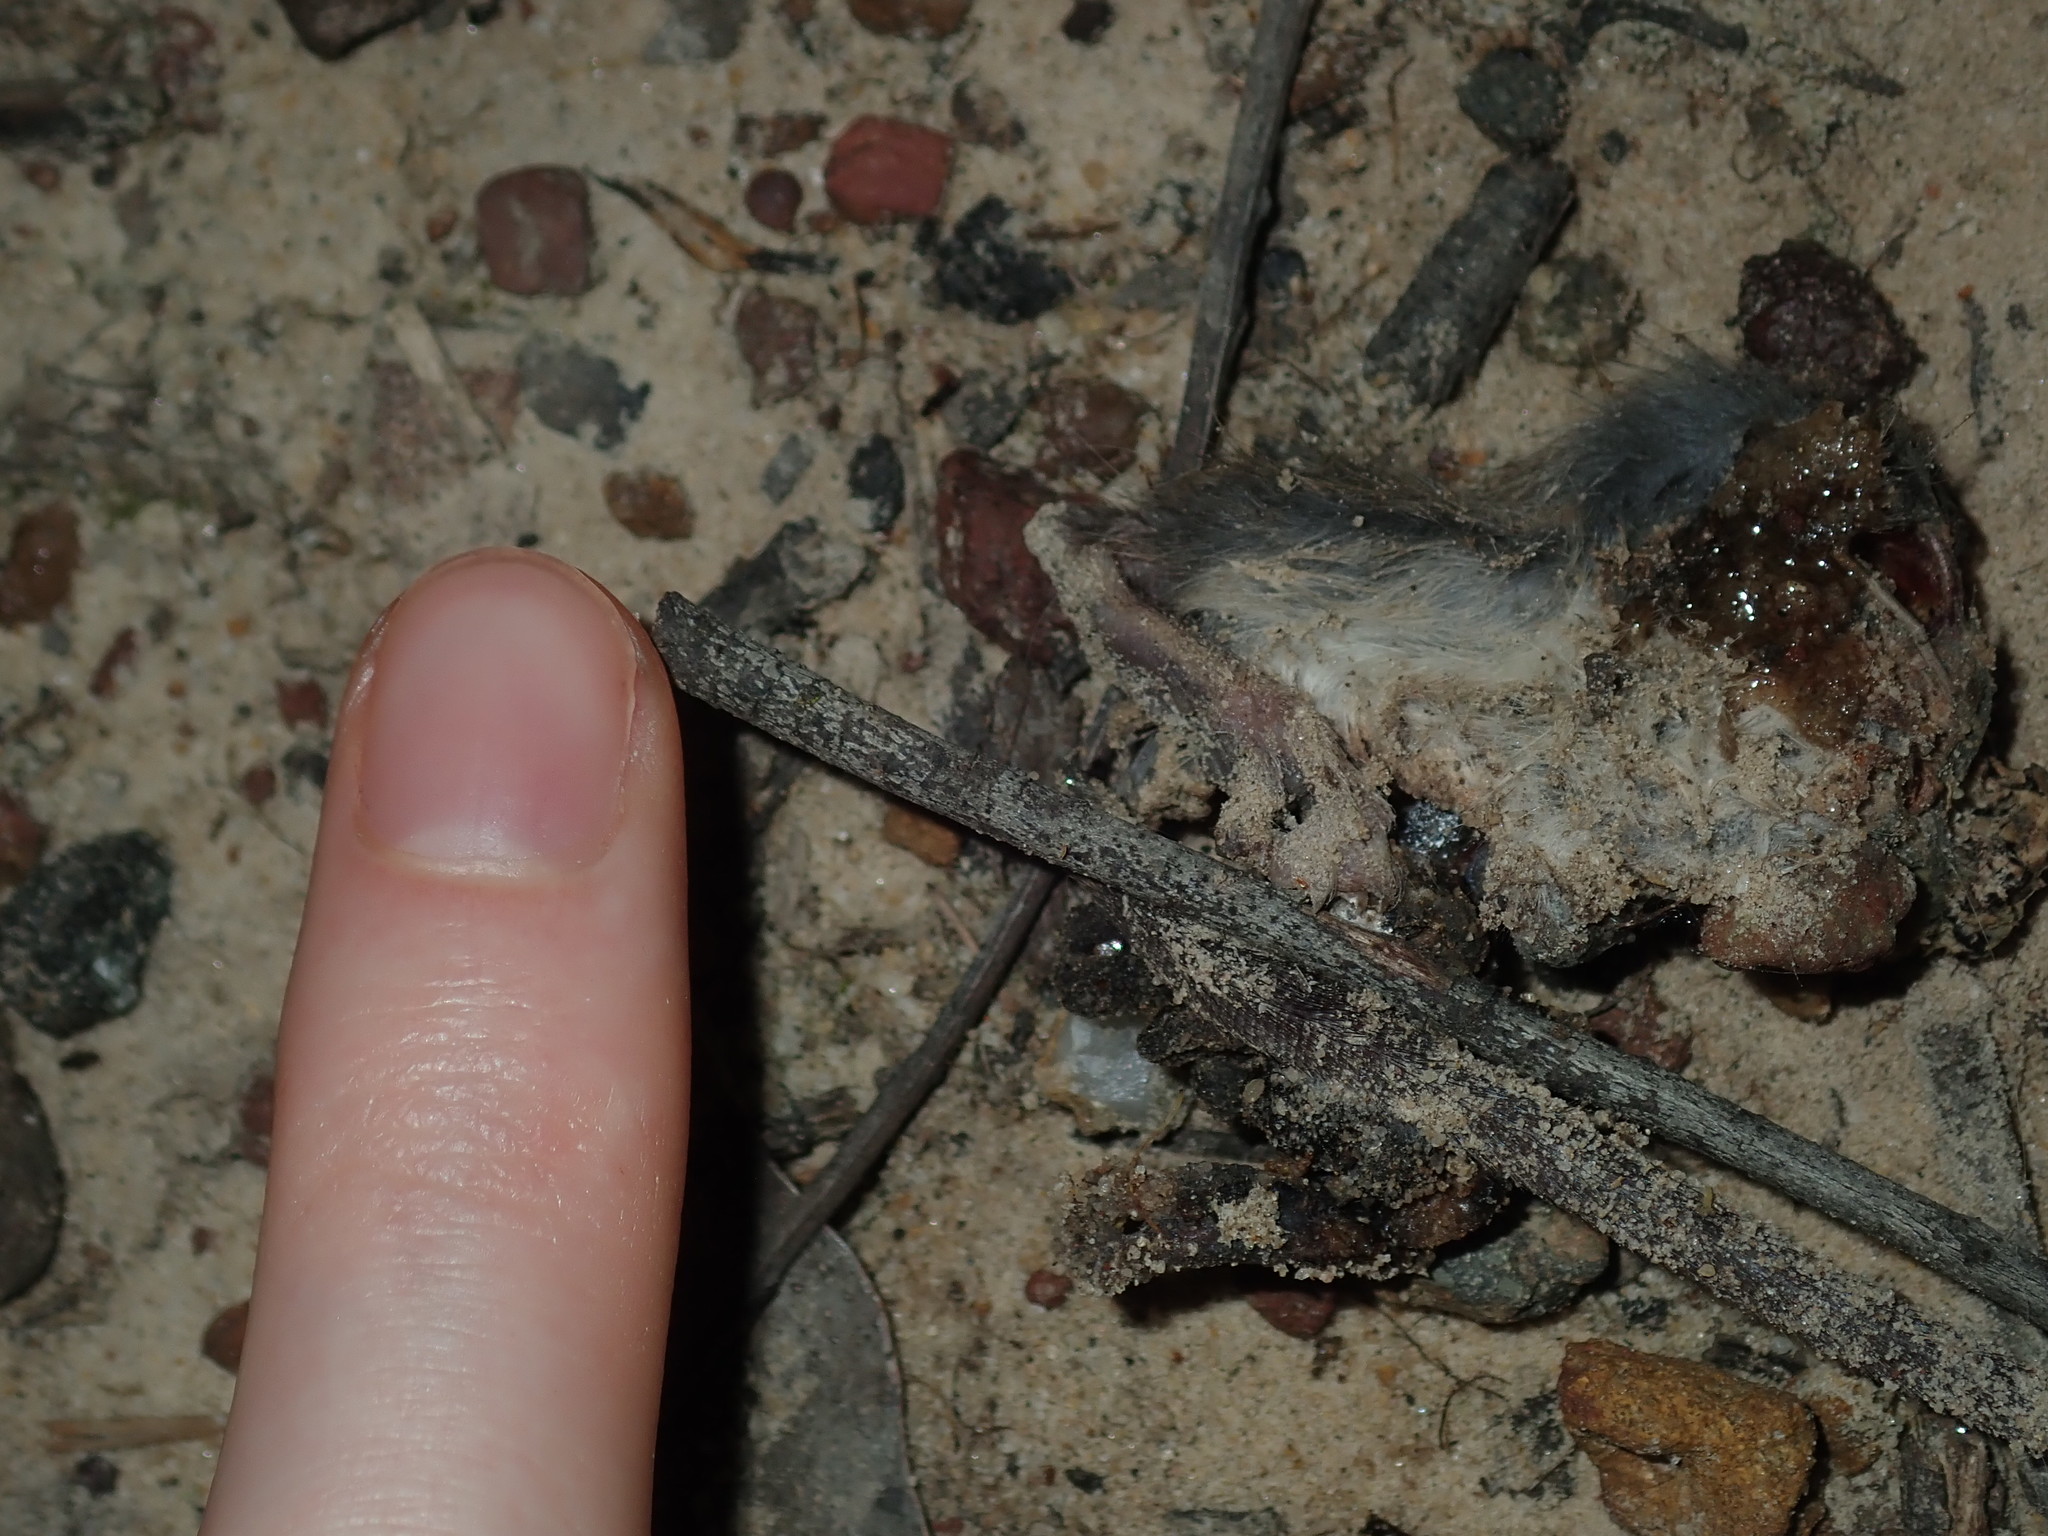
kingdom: Animalia
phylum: Chordata
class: Mammalia
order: Rodentia
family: Muridae
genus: Rattus
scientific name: Rattus rattus
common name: Black rat
